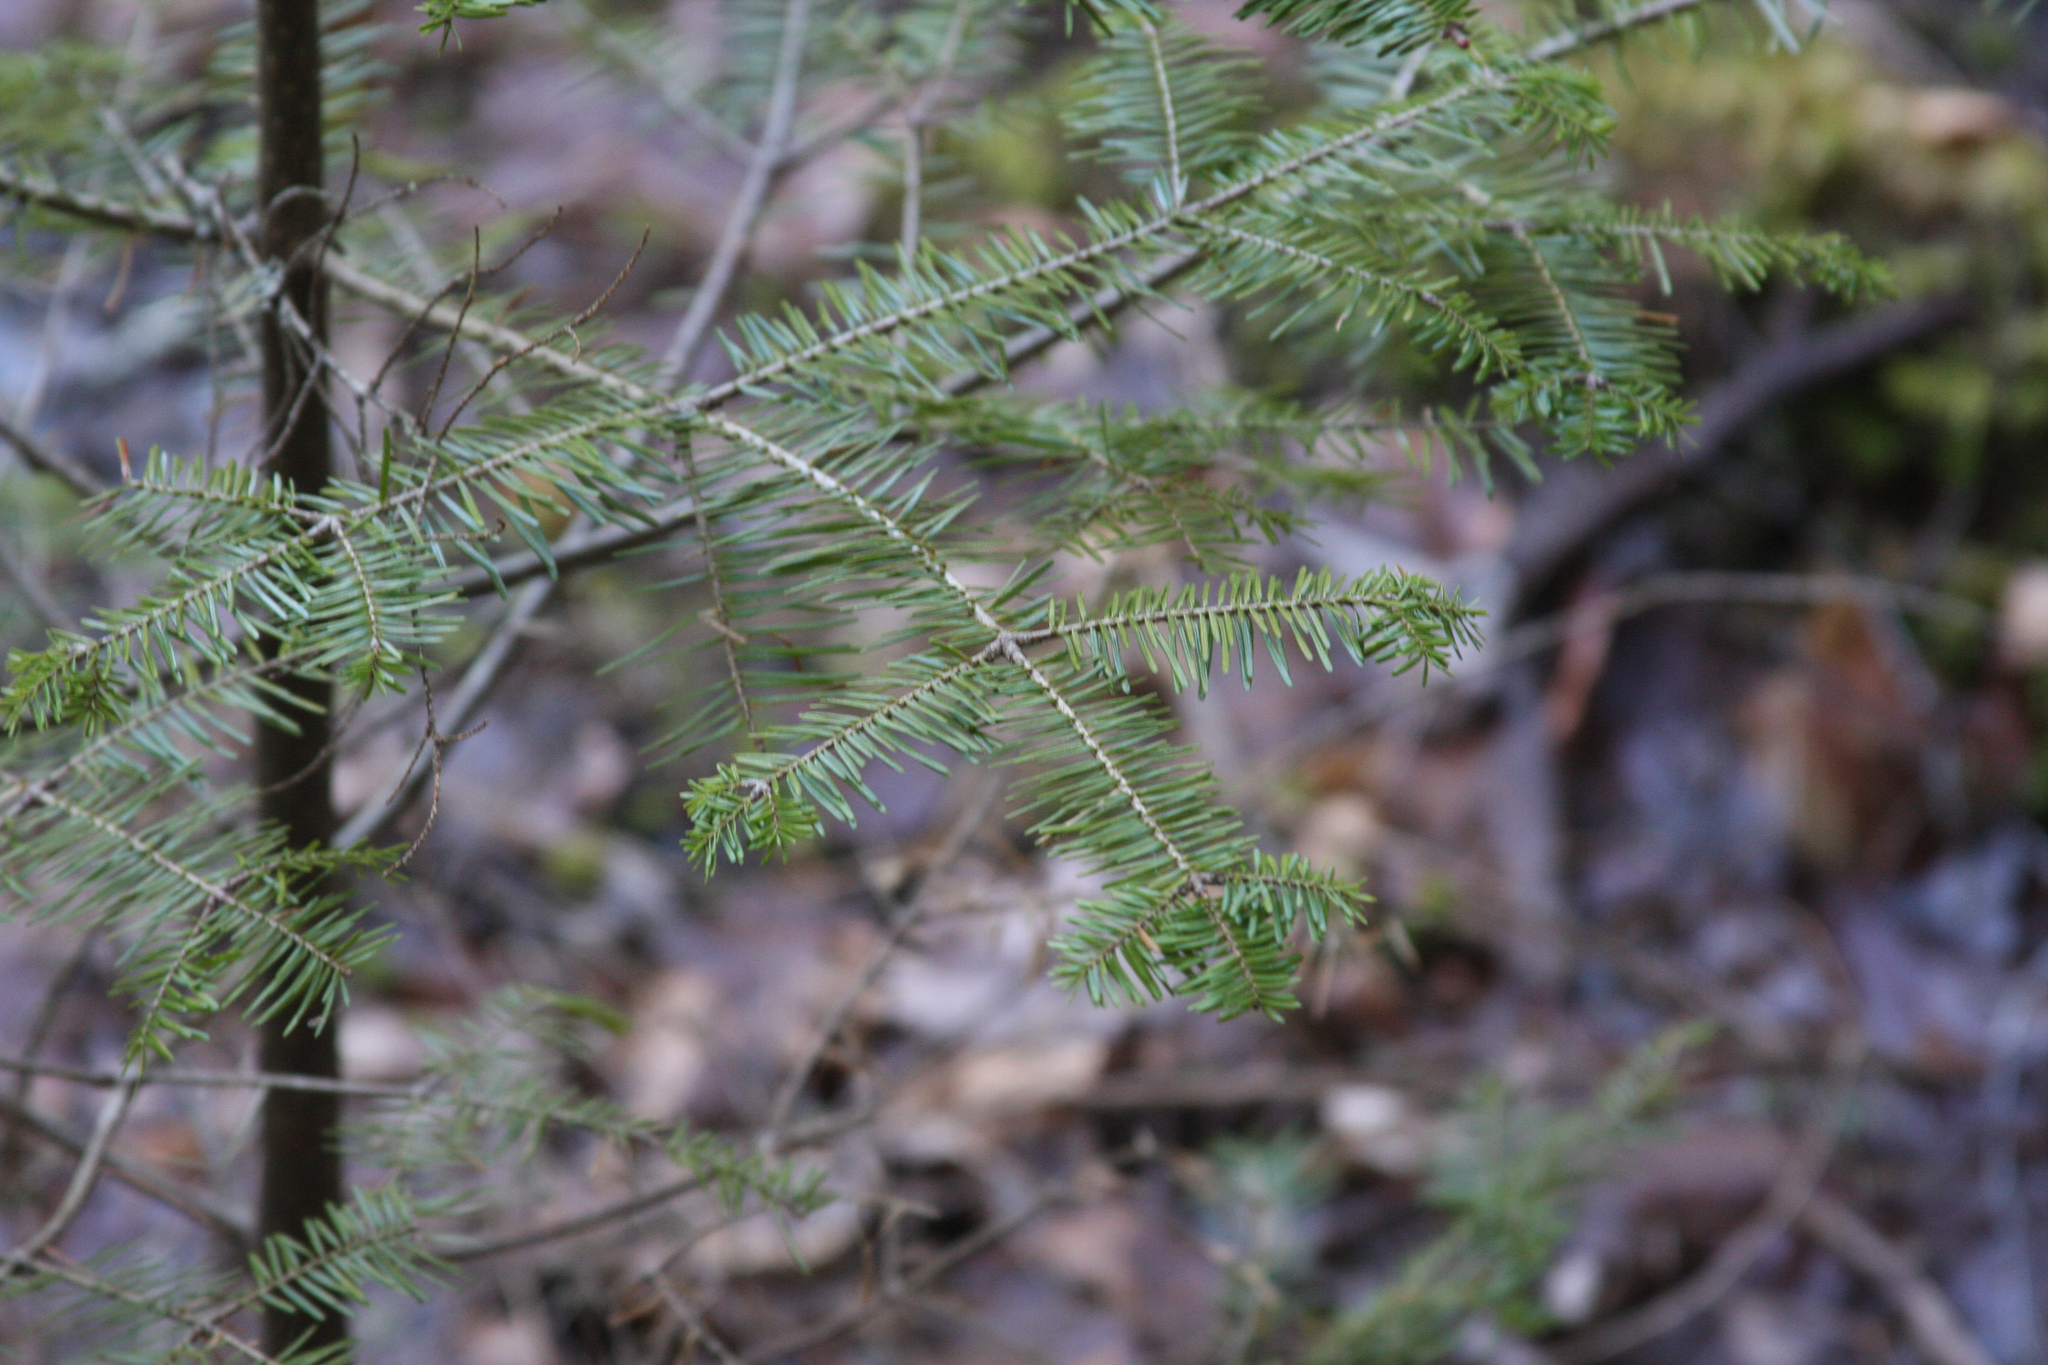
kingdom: Plantae
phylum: Tracheophyta
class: Pinopsida
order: Pinales
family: Pinaceae
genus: Abies
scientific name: Abies balsamea
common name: Balsam fir
